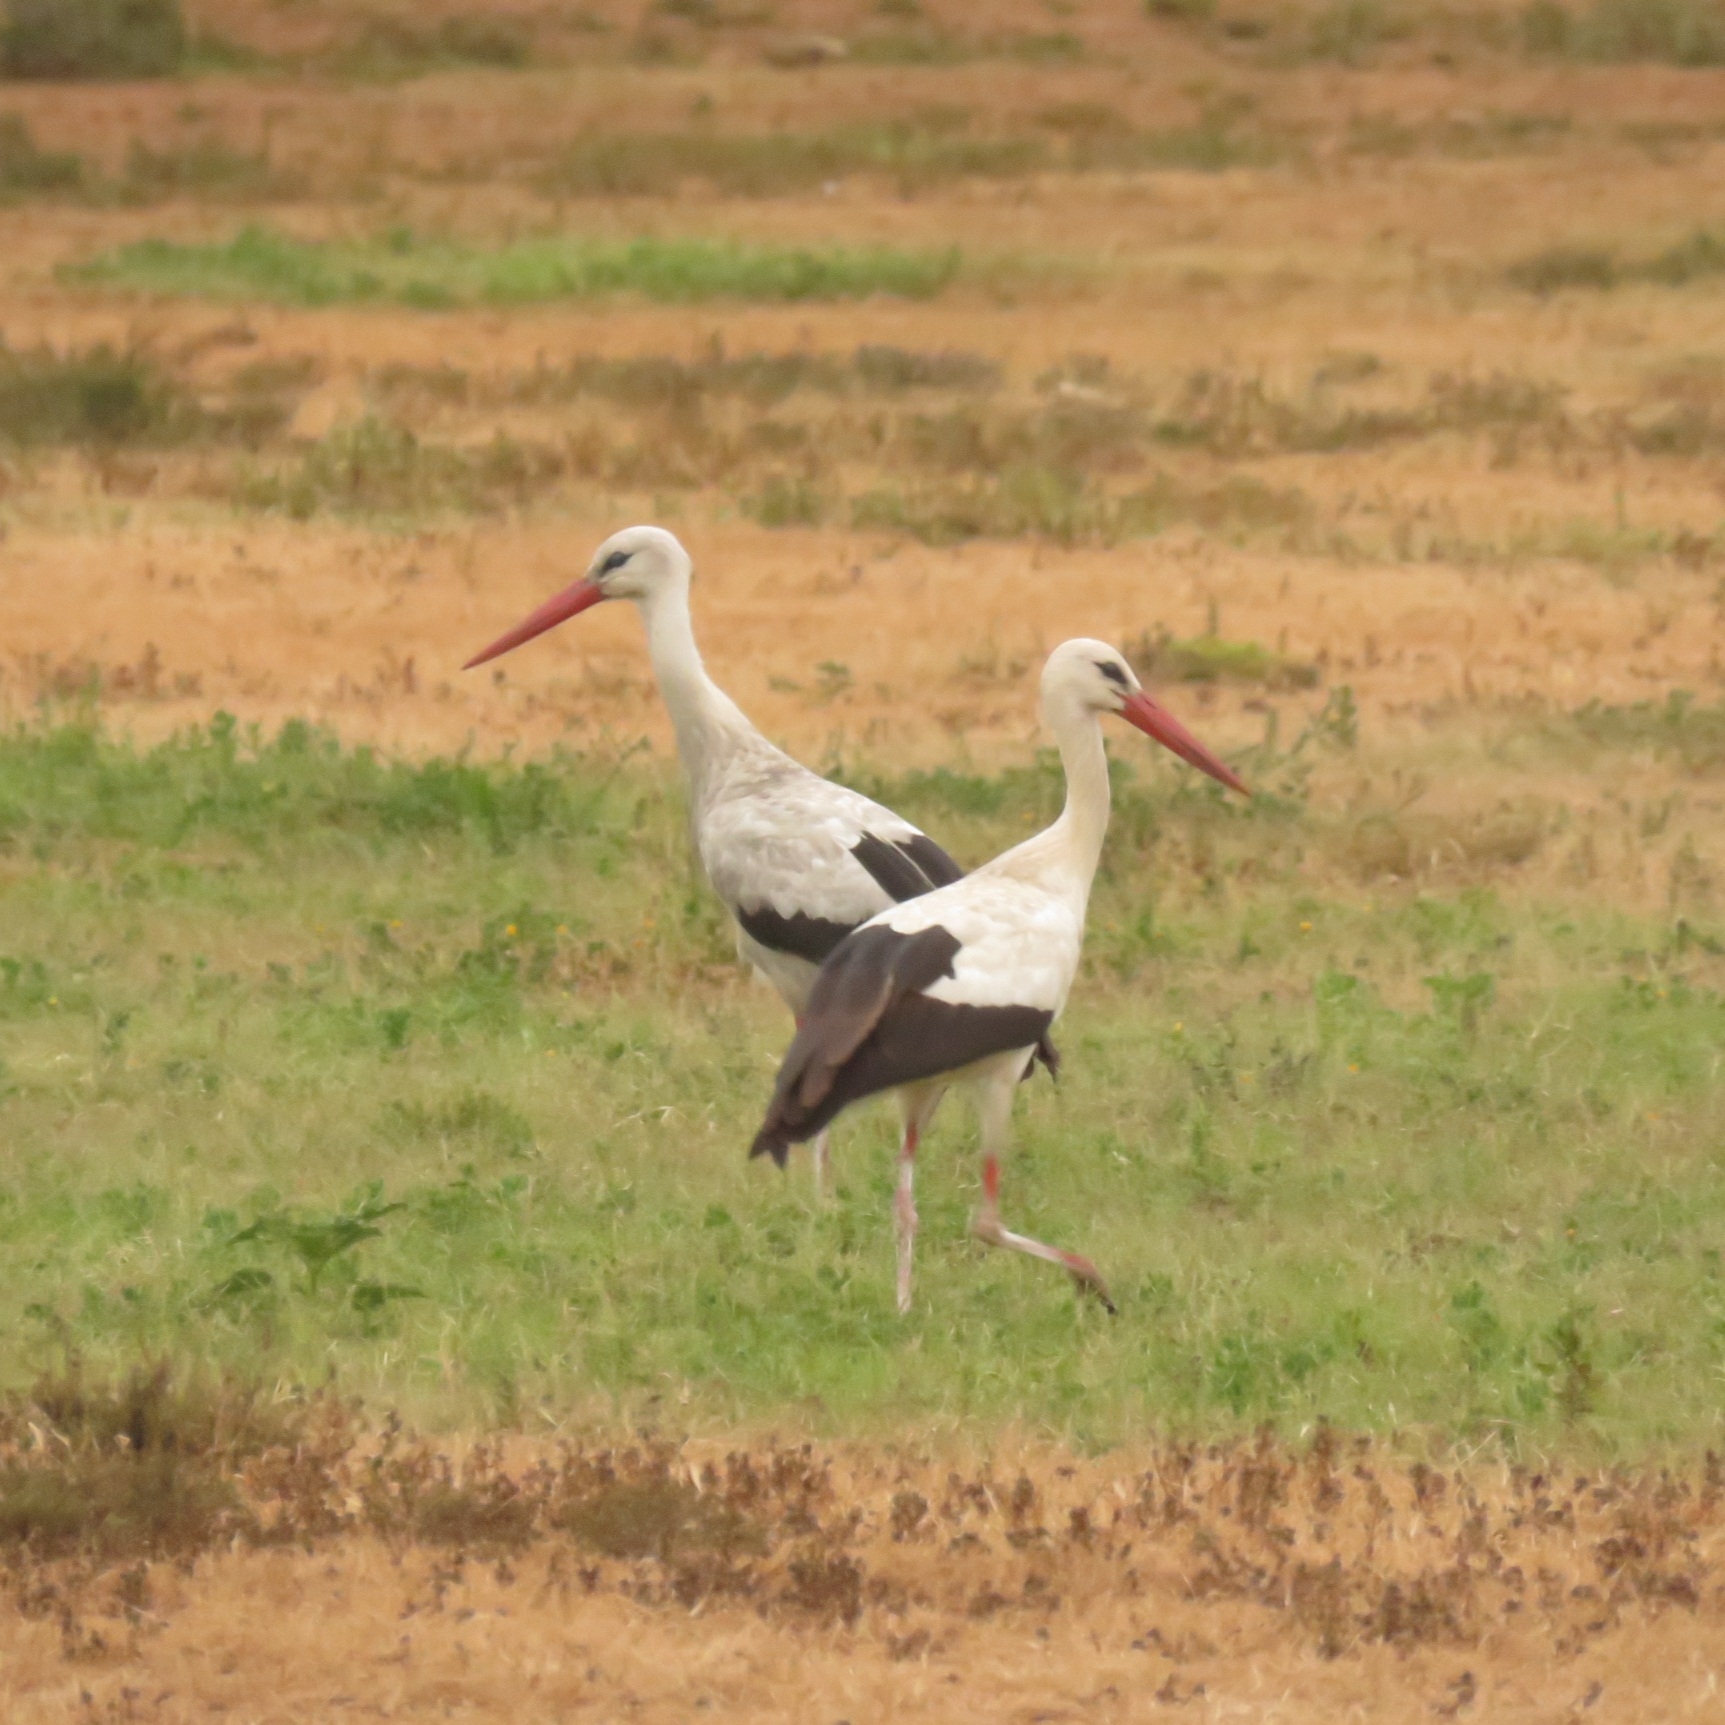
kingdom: Animalia
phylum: Chordata
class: Aves
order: Ciconiiformes
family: Ciconiidae
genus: Ciconia
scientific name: Ciconia ciconia
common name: White stork
